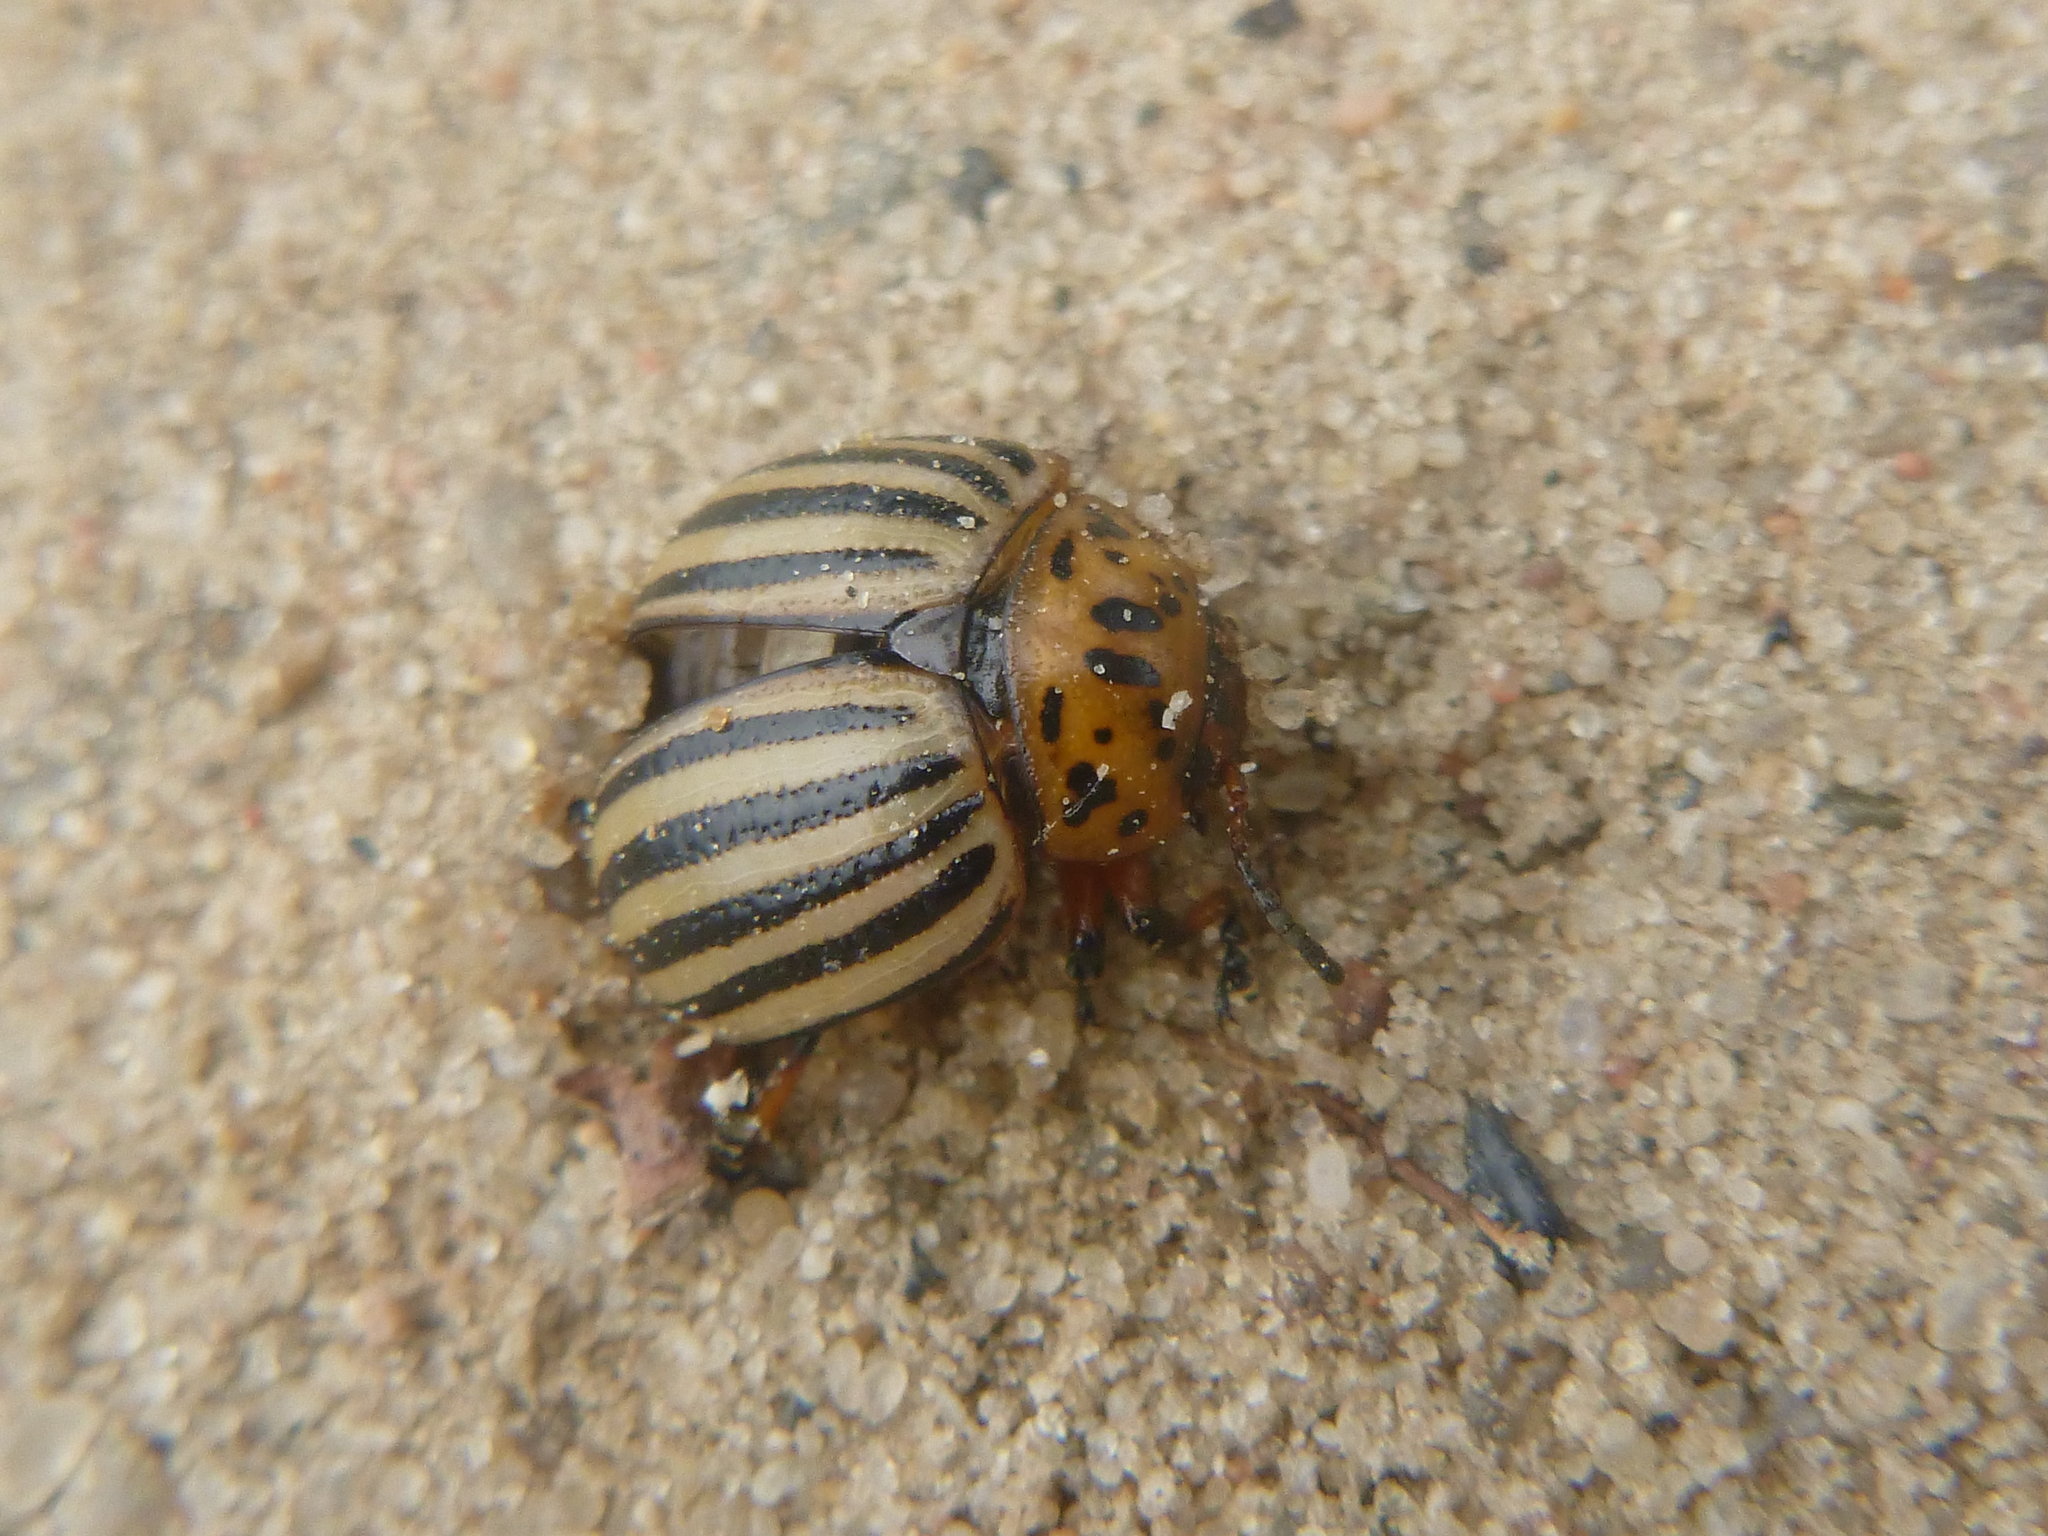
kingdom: Animalia
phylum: Arthropoda
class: Insecta
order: Coleoptera
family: Chrysomelidae
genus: Leptinotarsa
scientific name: Leptinotarsa decemlineata
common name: Colorado potato beetle
